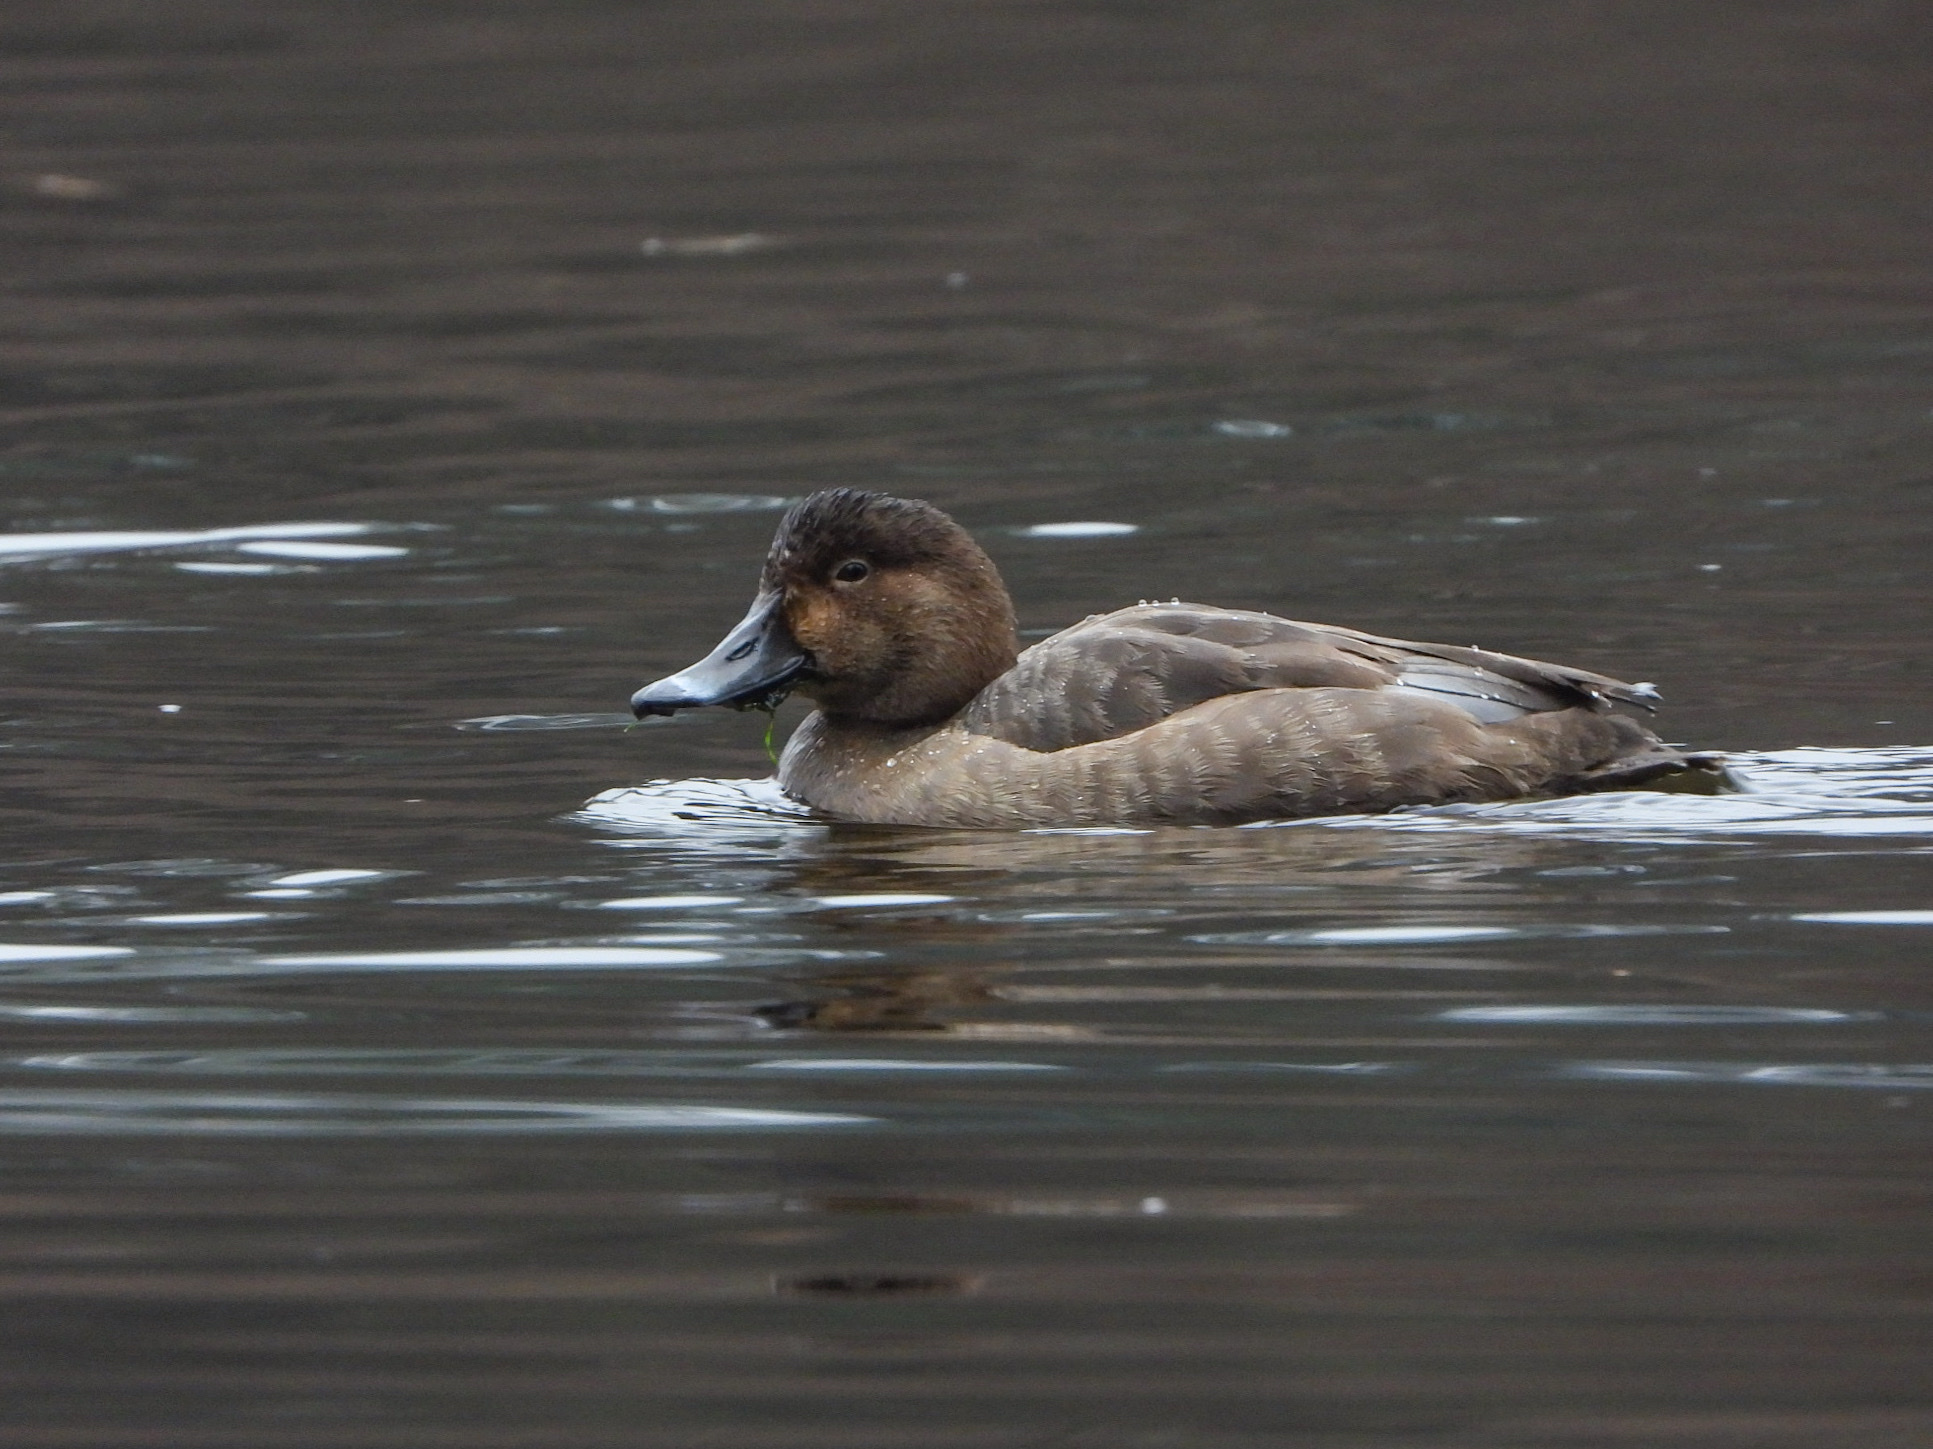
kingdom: Animalia
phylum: Chordata
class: Aves
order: Anseriformes
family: Anatidae
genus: Aythya
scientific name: Aythya americana
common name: Redhead
